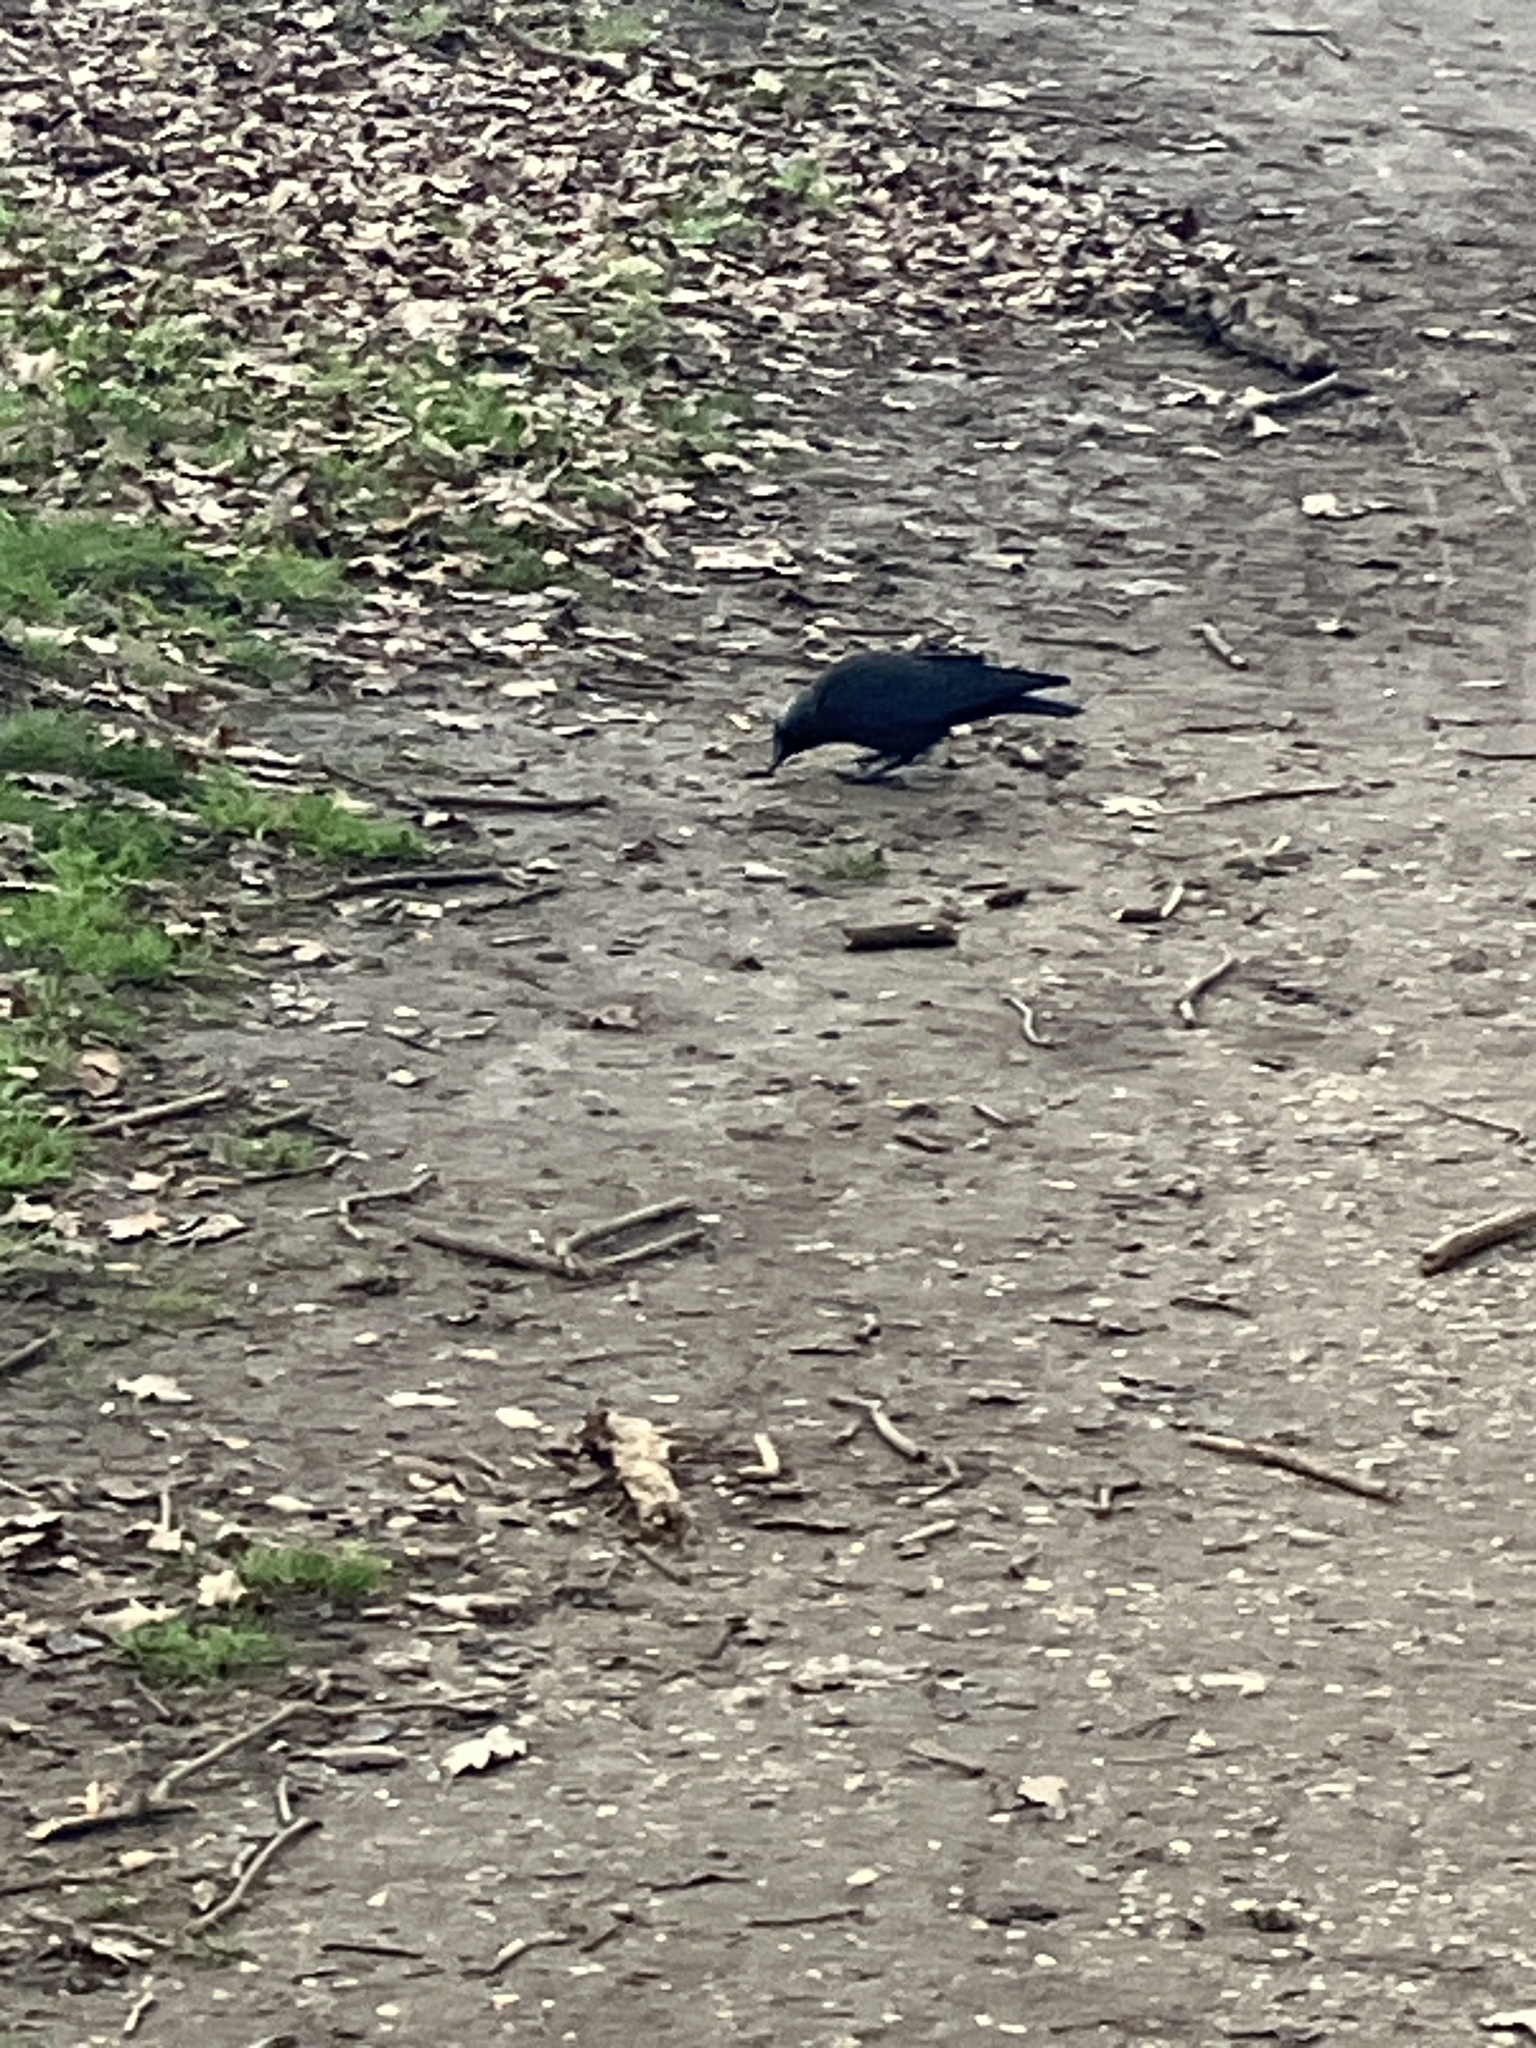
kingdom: Animalia
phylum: Chordata
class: Aves
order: Passeriformes
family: Corvidae
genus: Coloeus
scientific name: Coloeus monedula
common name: Western jackdaw
